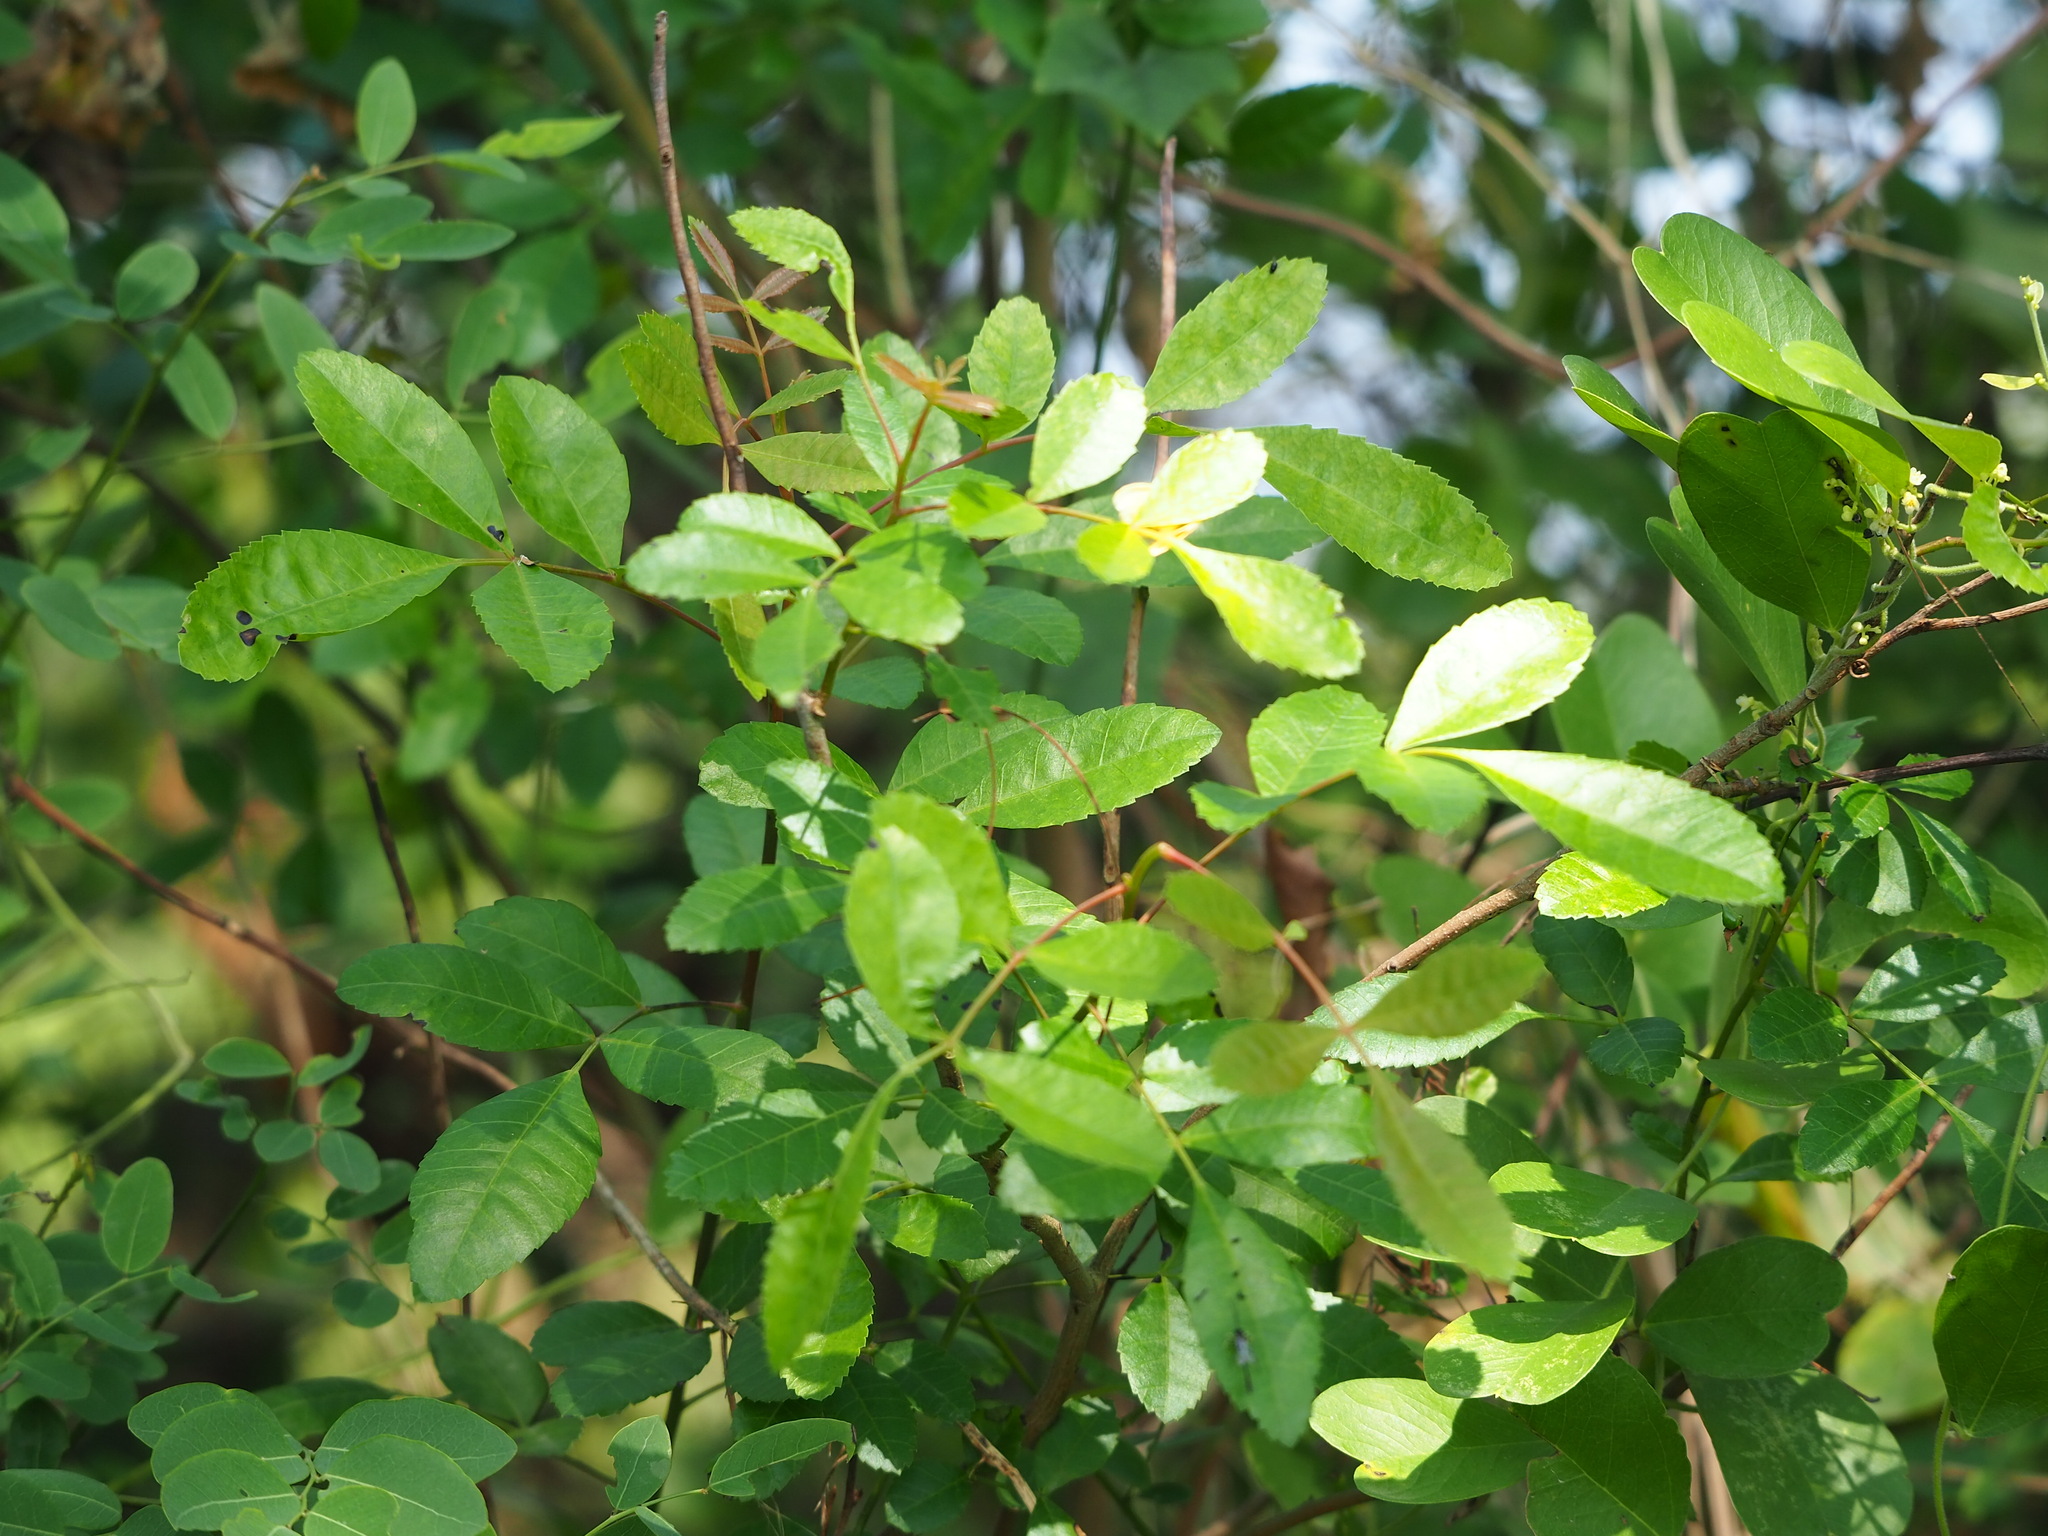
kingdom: Plantae
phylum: Tracheophyta
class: Magnoliopsida
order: Sapindales
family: Anacardiaceae
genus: Schinus
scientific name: Schinus terebinthifolia
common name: Brazilian peppertree
